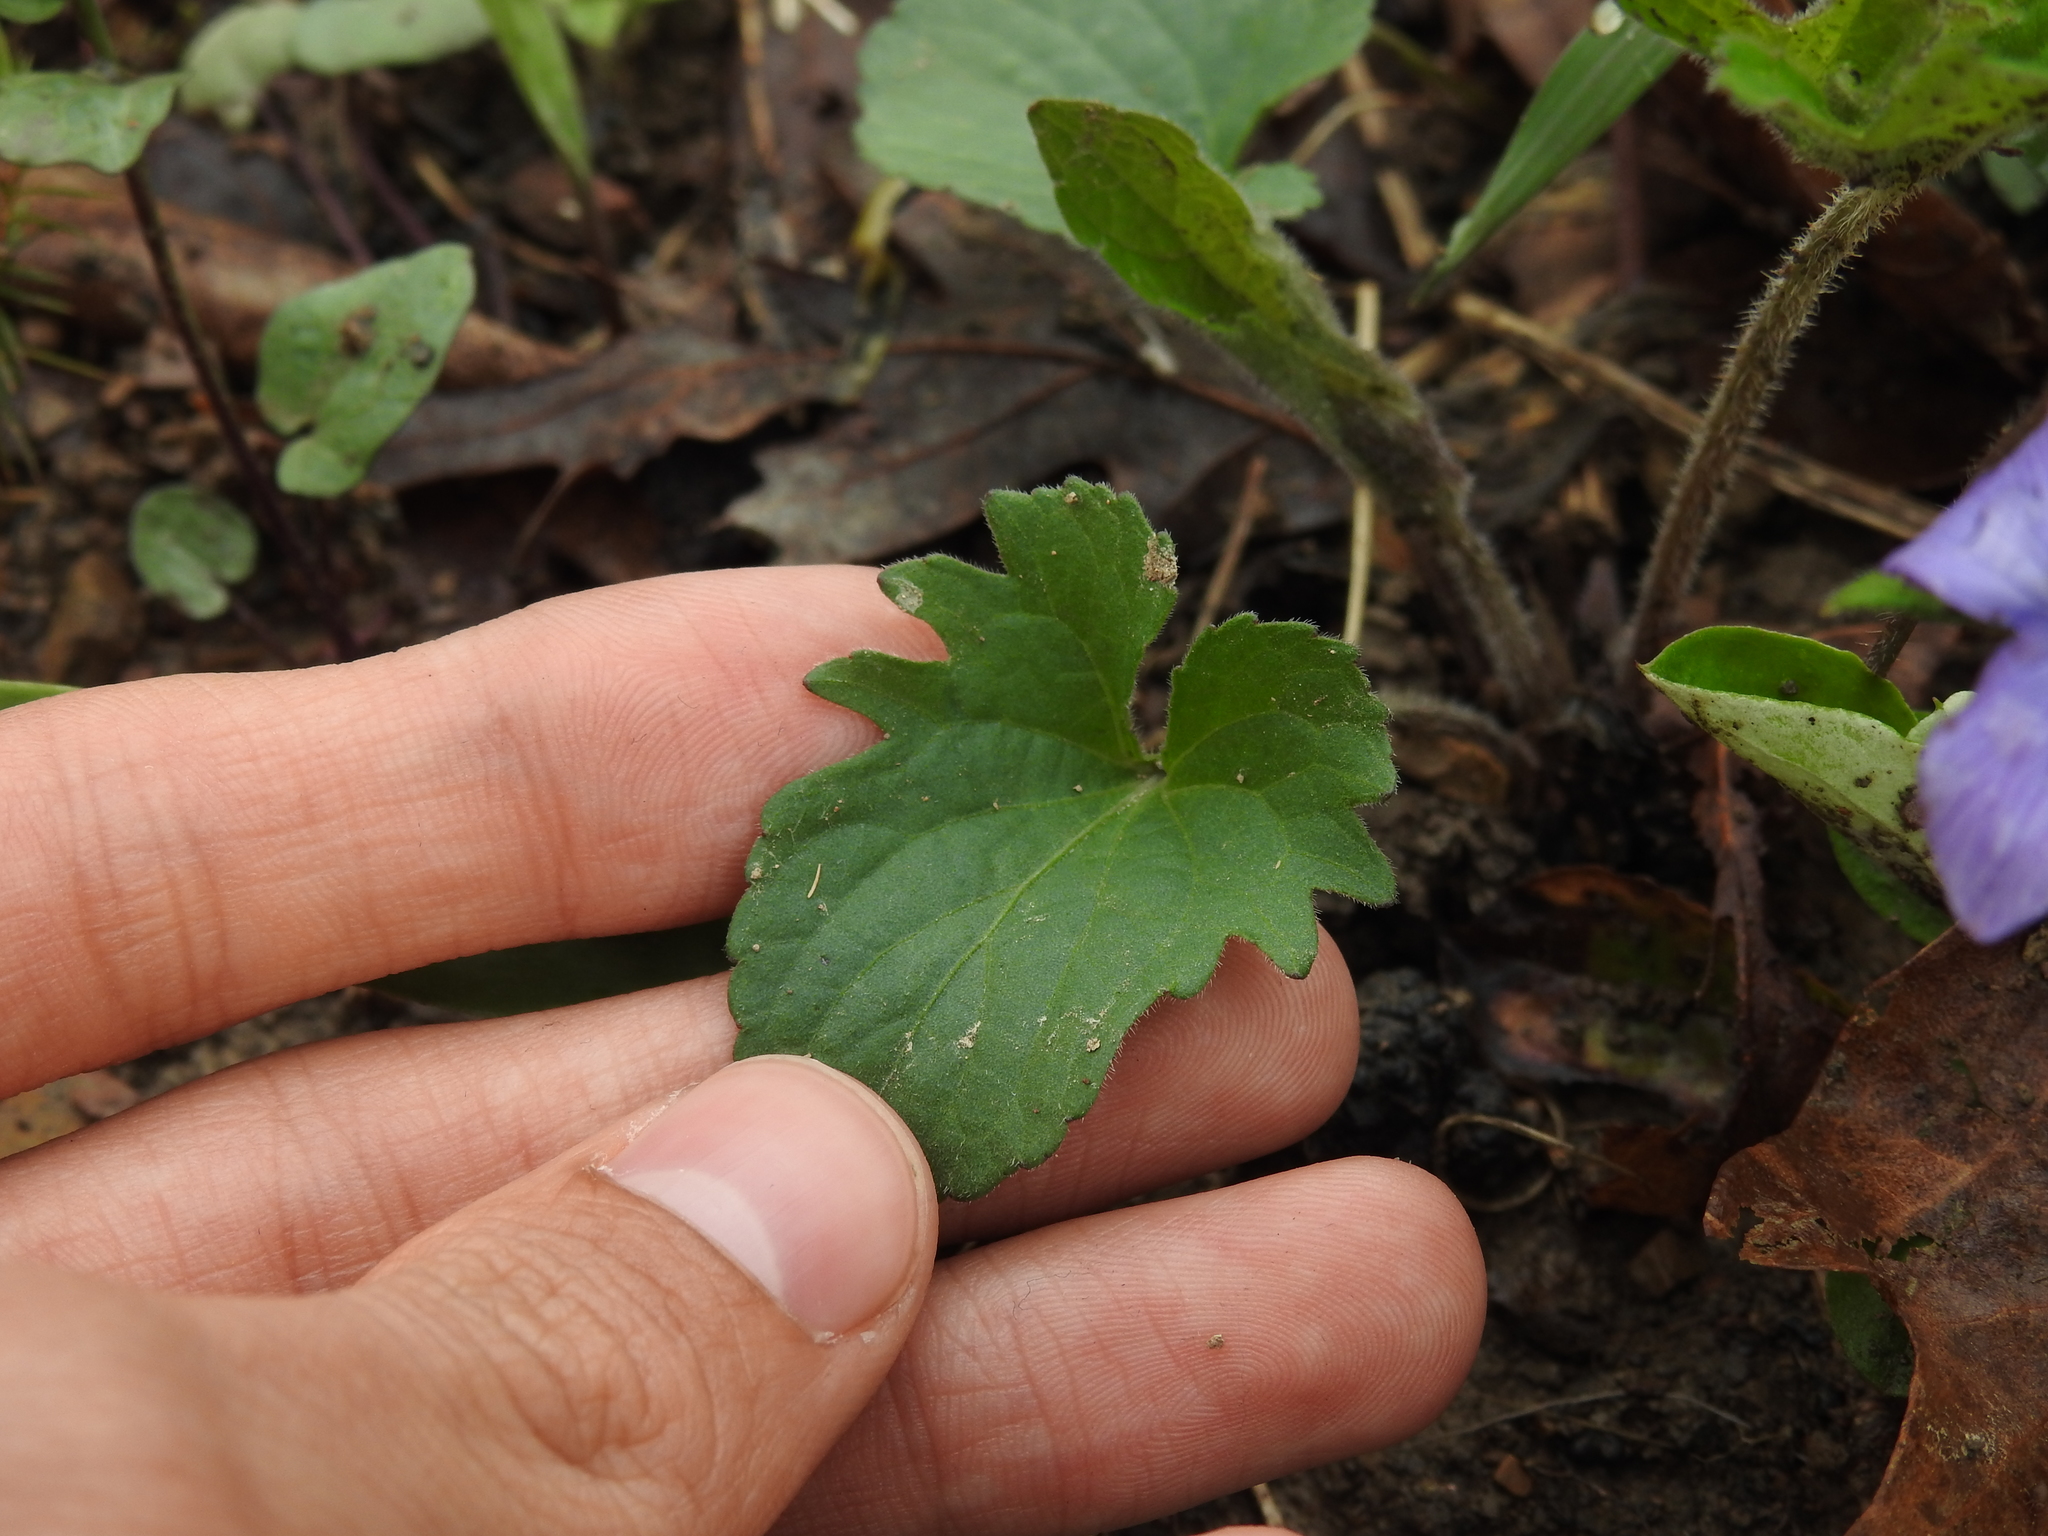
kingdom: Plantae
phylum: Tracheophyta
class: Magnoliopsida
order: Malpighiales
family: Violaceae
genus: Viola
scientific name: Viola palmata
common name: Early blue violet
